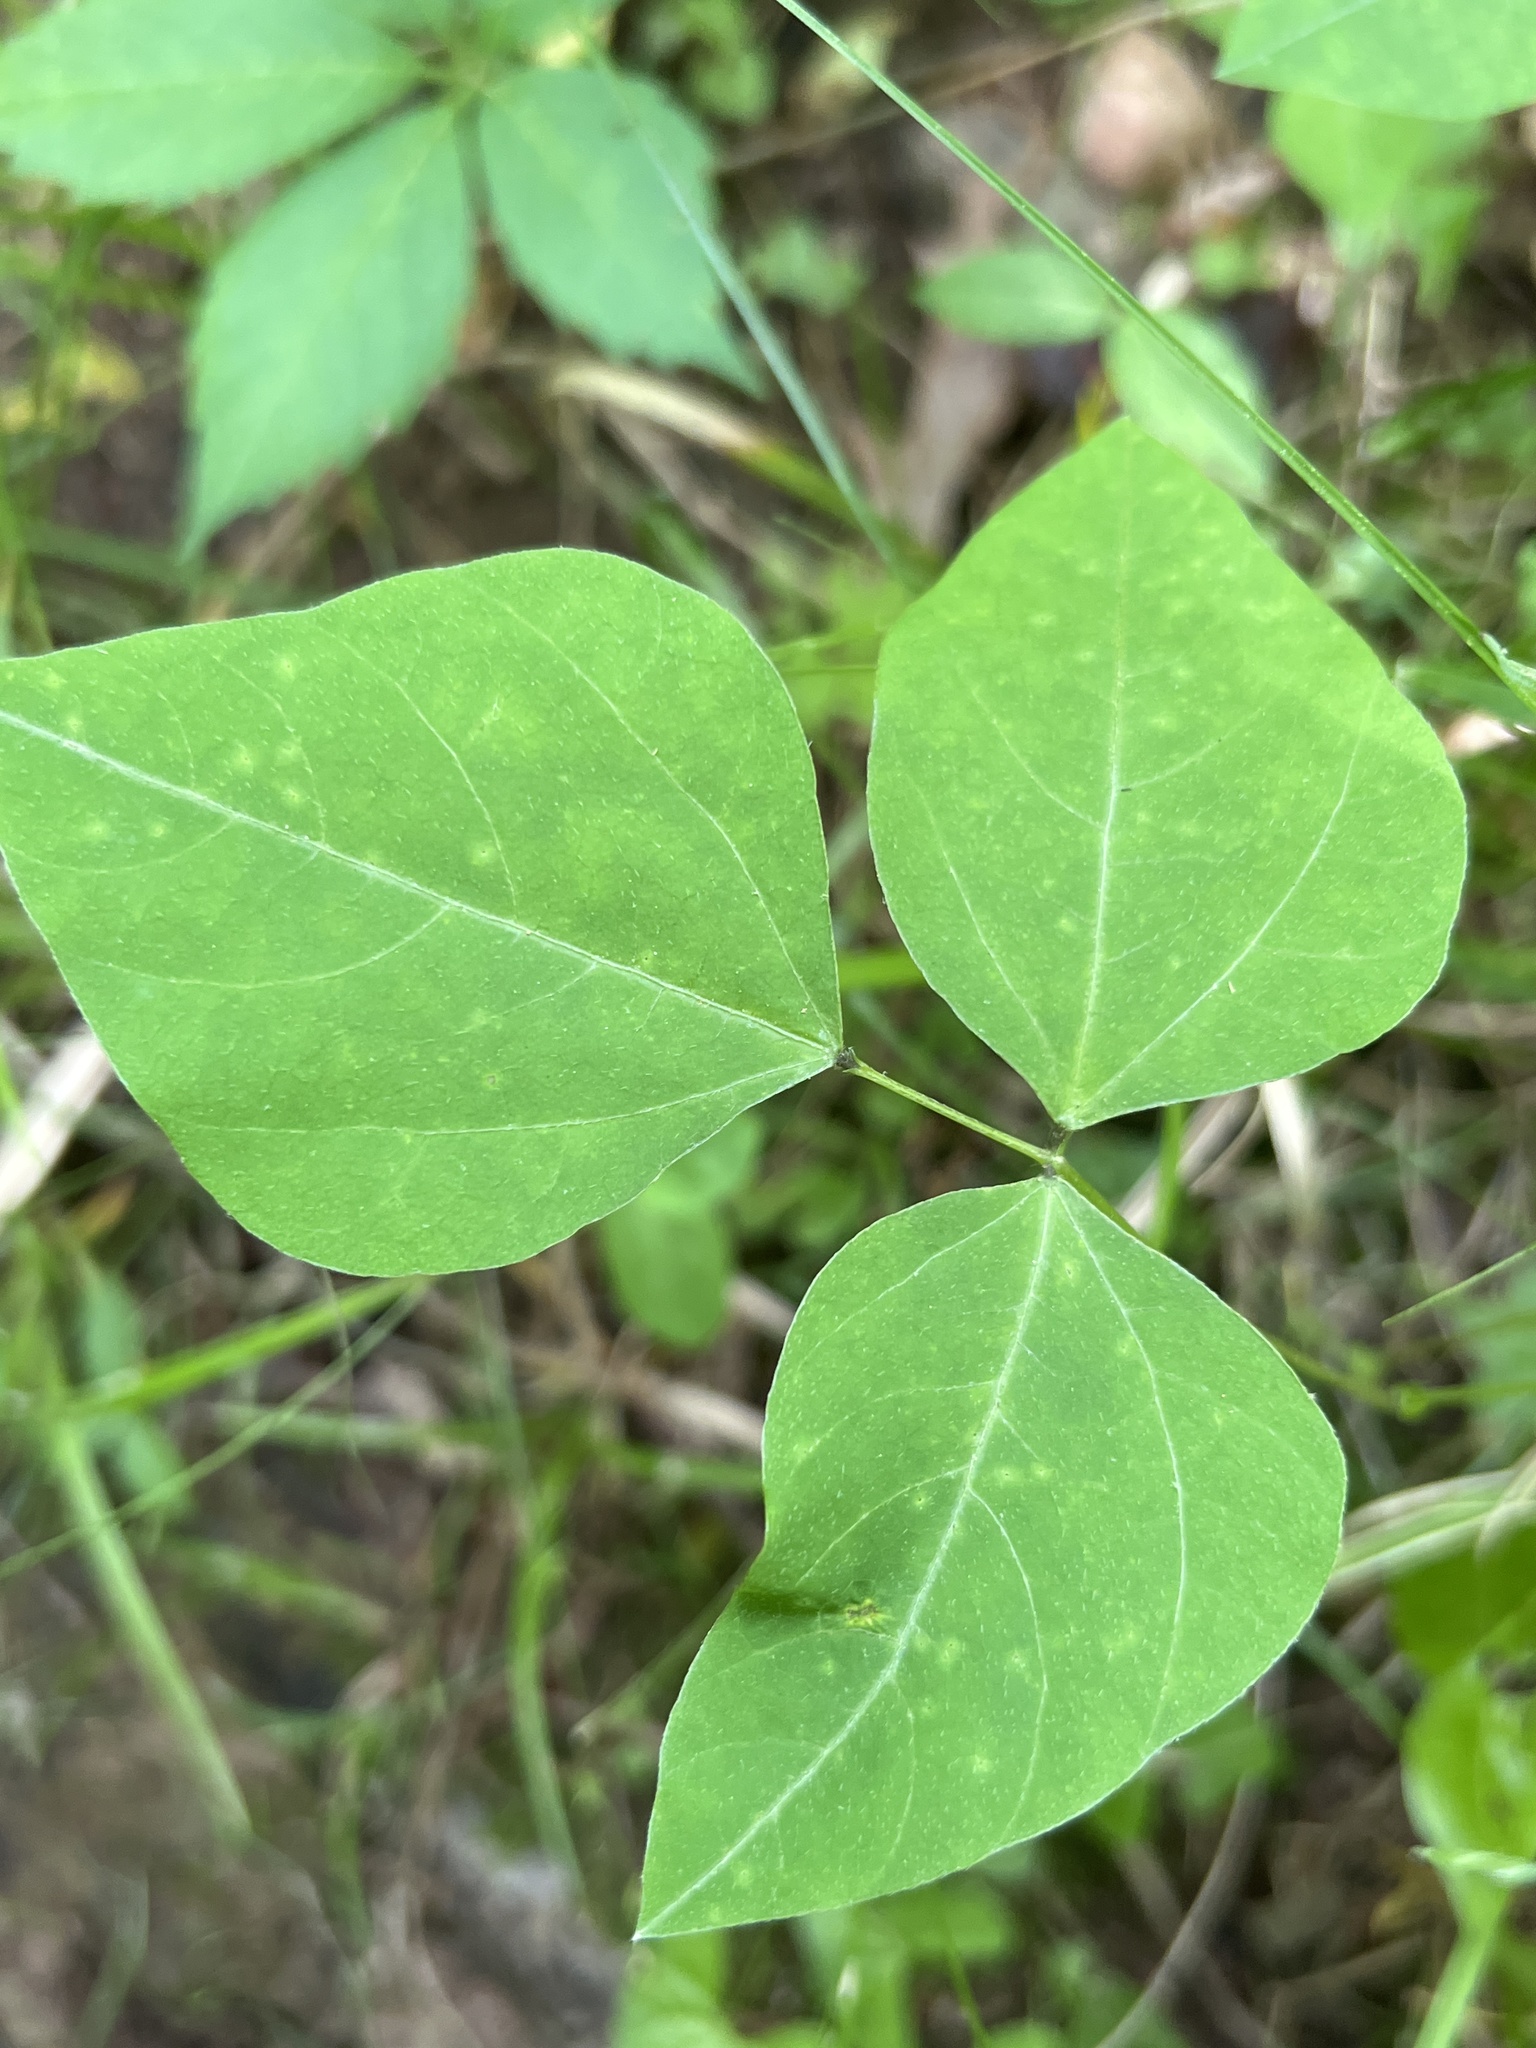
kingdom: Plantae
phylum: Tracheophyta
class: Magnoliopsida
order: Fabales
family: Fabaceae
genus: Amphicarpaea
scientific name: Amphicarpaea bracteata
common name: American hog peanut
